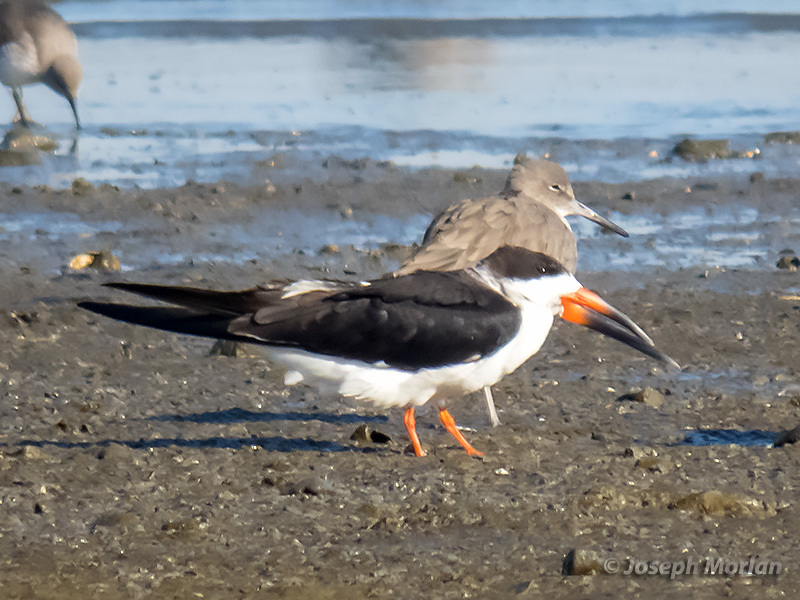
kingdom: Animalia
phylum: Chordata
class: Aves
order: Charadriiformes
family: Laridae
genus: Rynchops
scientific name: Rynchops niger
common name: Black skimmer
